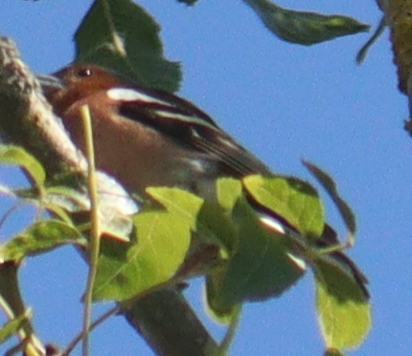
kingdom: Animalia
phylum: Chordata
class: Aves
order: Passeriformes
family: Fringillidae
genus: Fringilla
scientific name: Fringilla coelebs
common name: Common chaffinch
